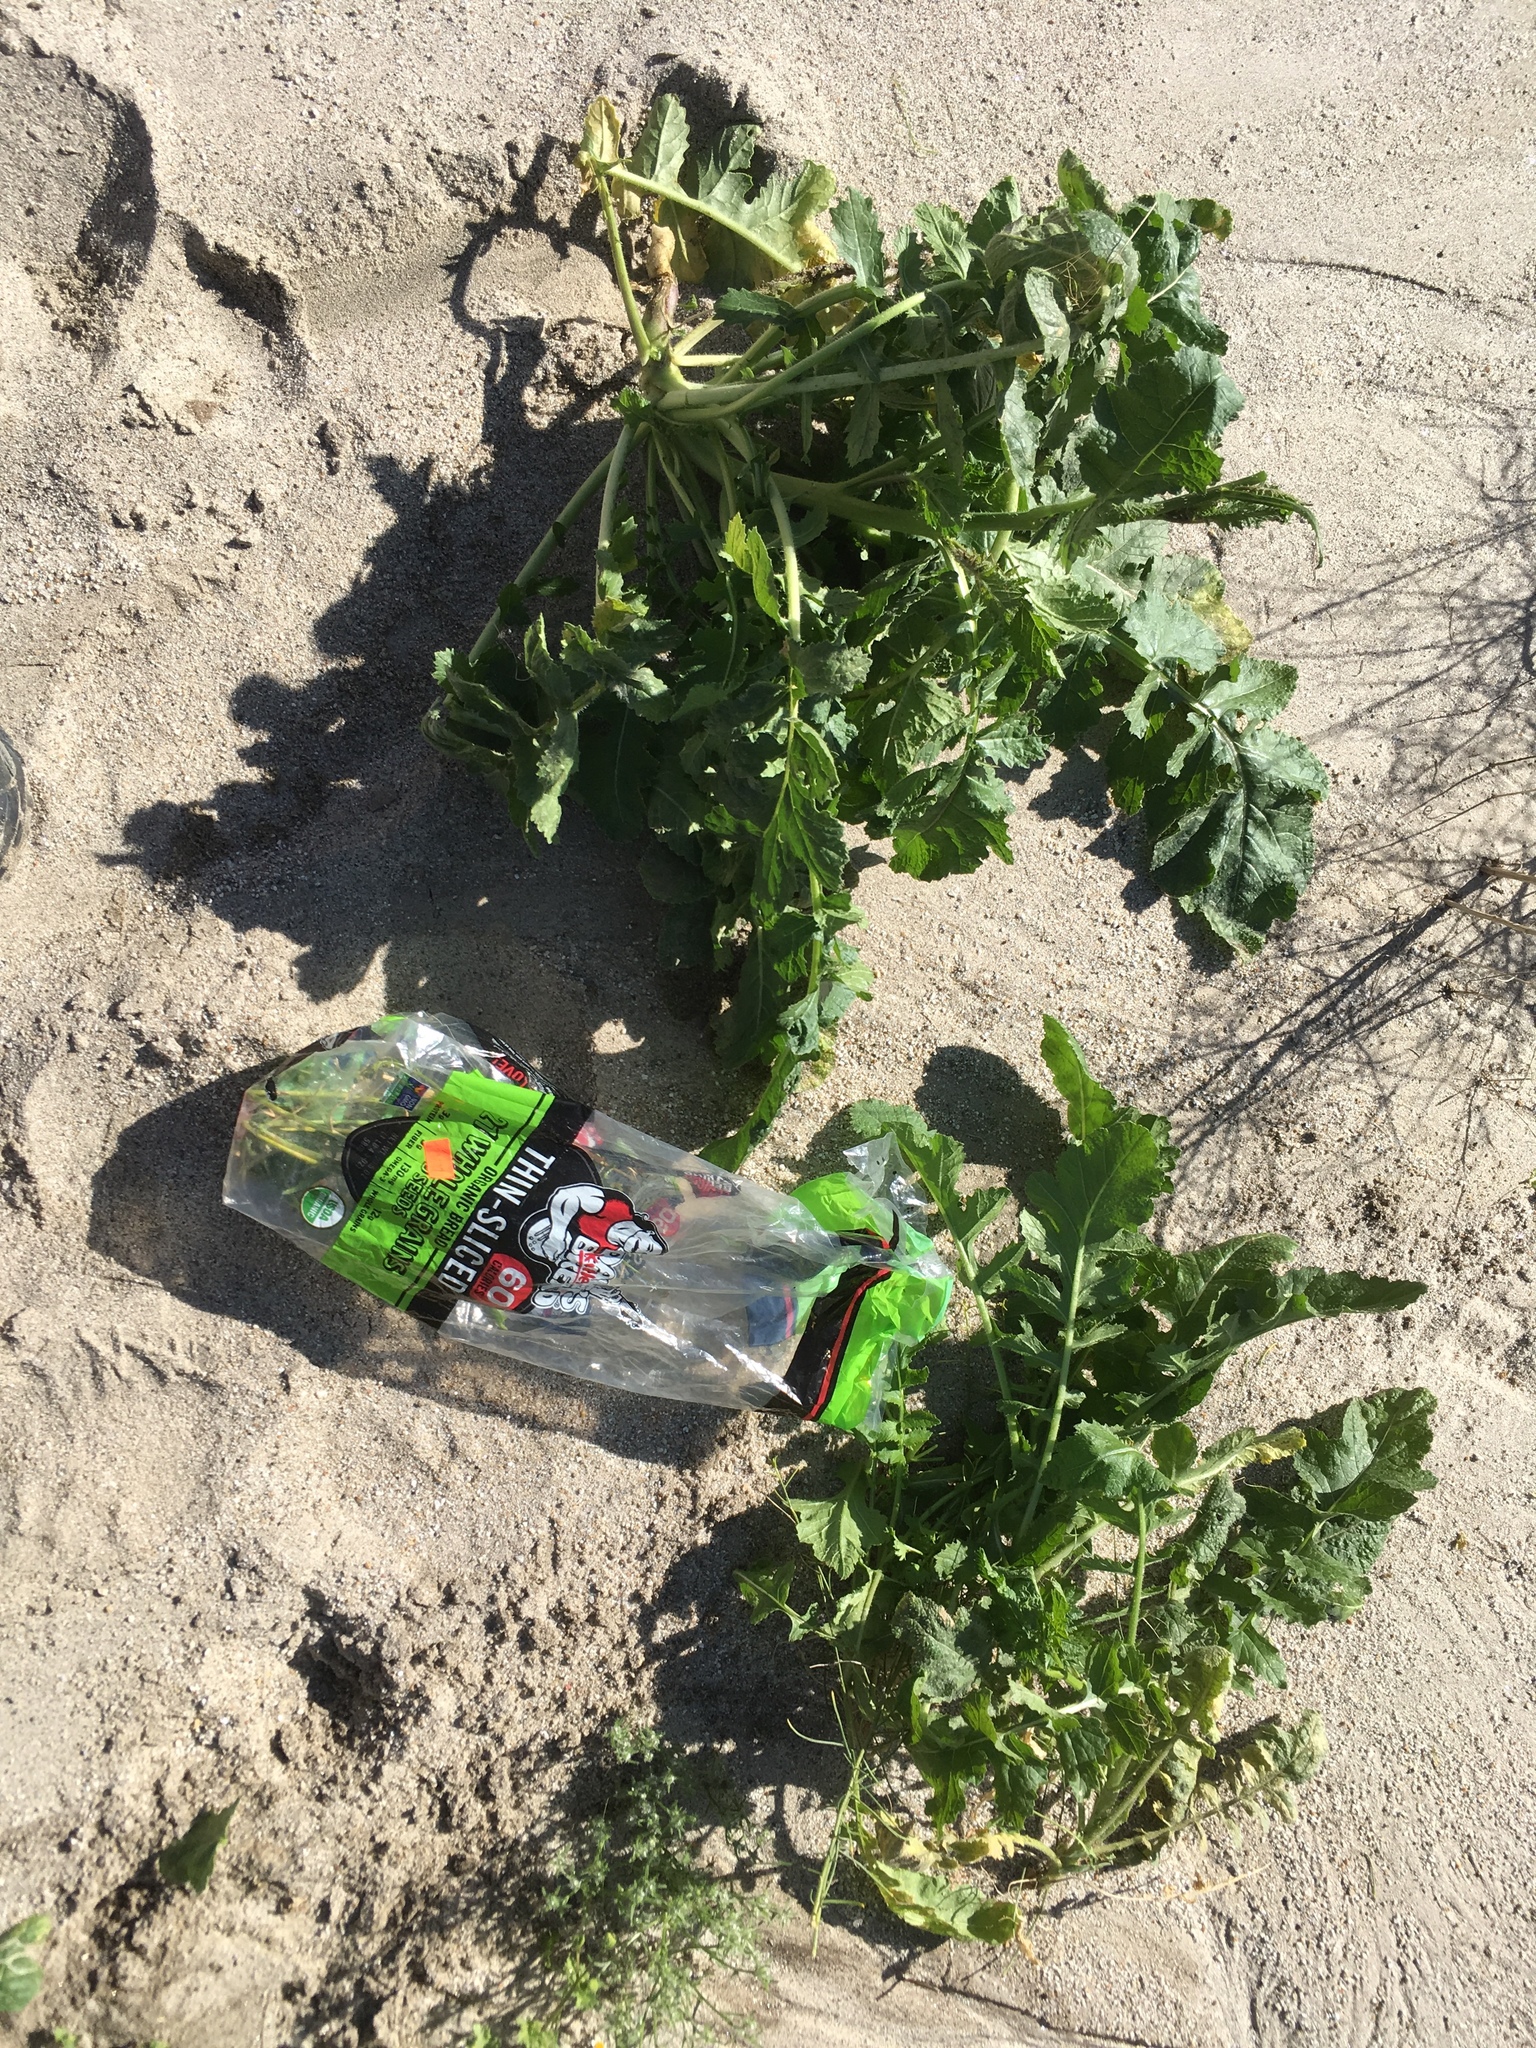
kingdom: Plantae
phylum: Tracheophyta
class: Magnoliopsida
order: Brassicales
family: Brassicaceae
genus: Brassica
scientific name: Brassica tournefortii
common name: Pale cabbage
